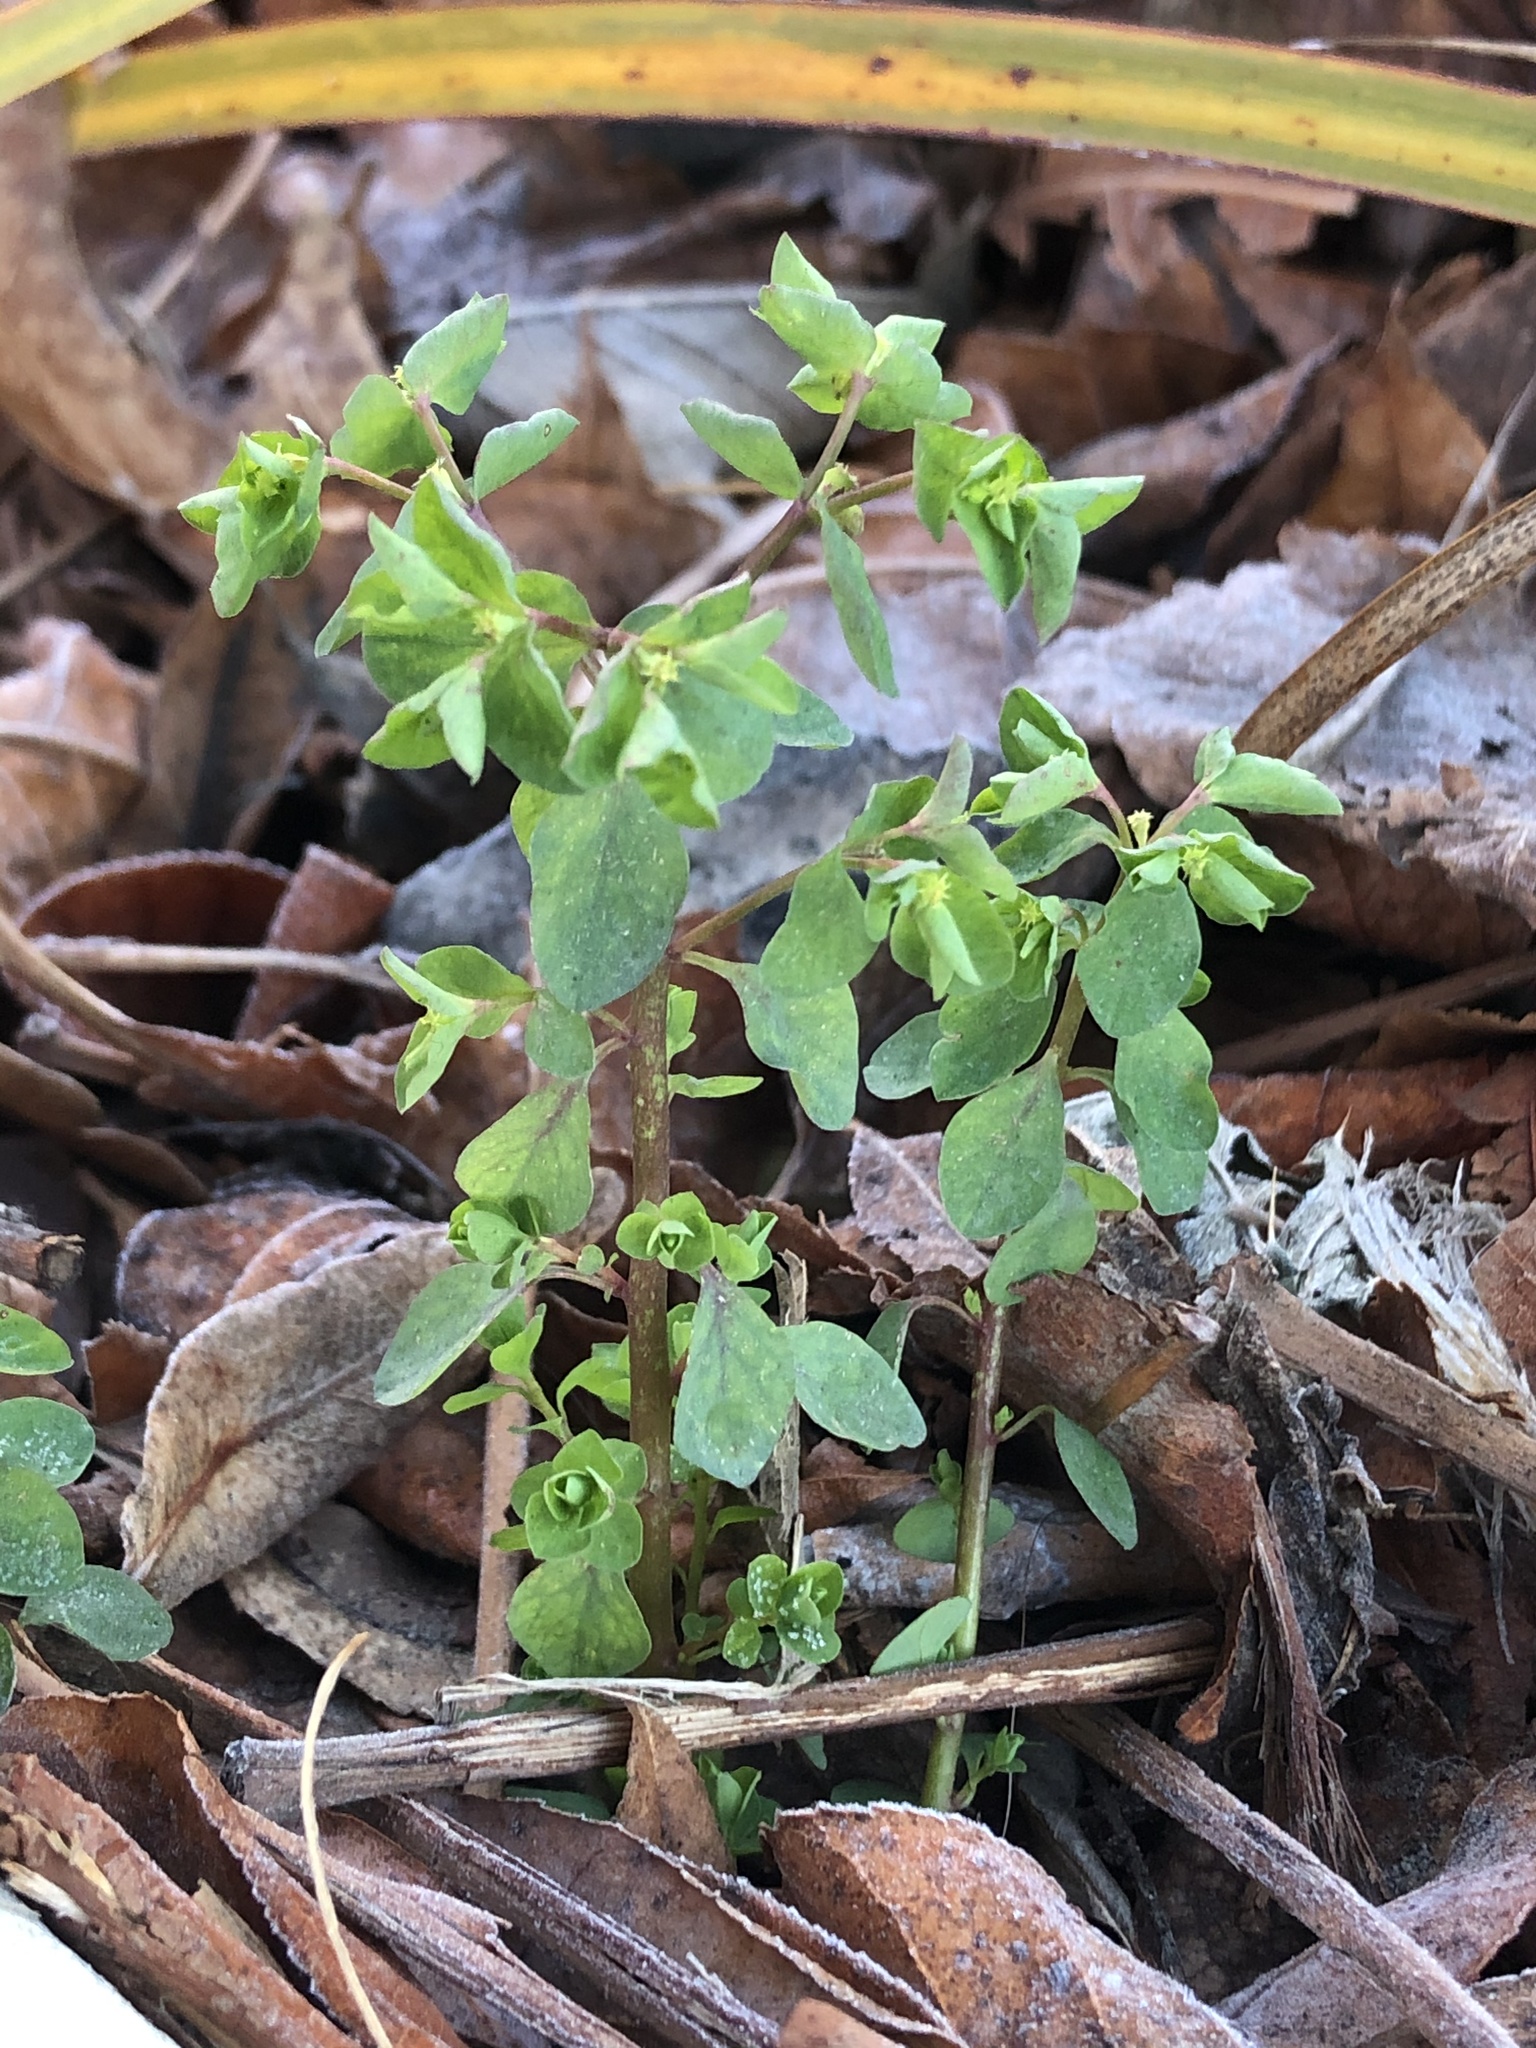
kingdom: Plantae
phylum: Tracheophyta
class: Magnoliopsida
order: Malpighiales
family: Euphorbiaceae
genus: Euphorbia
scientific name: Euphorbia peplus
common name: Petty spurge
